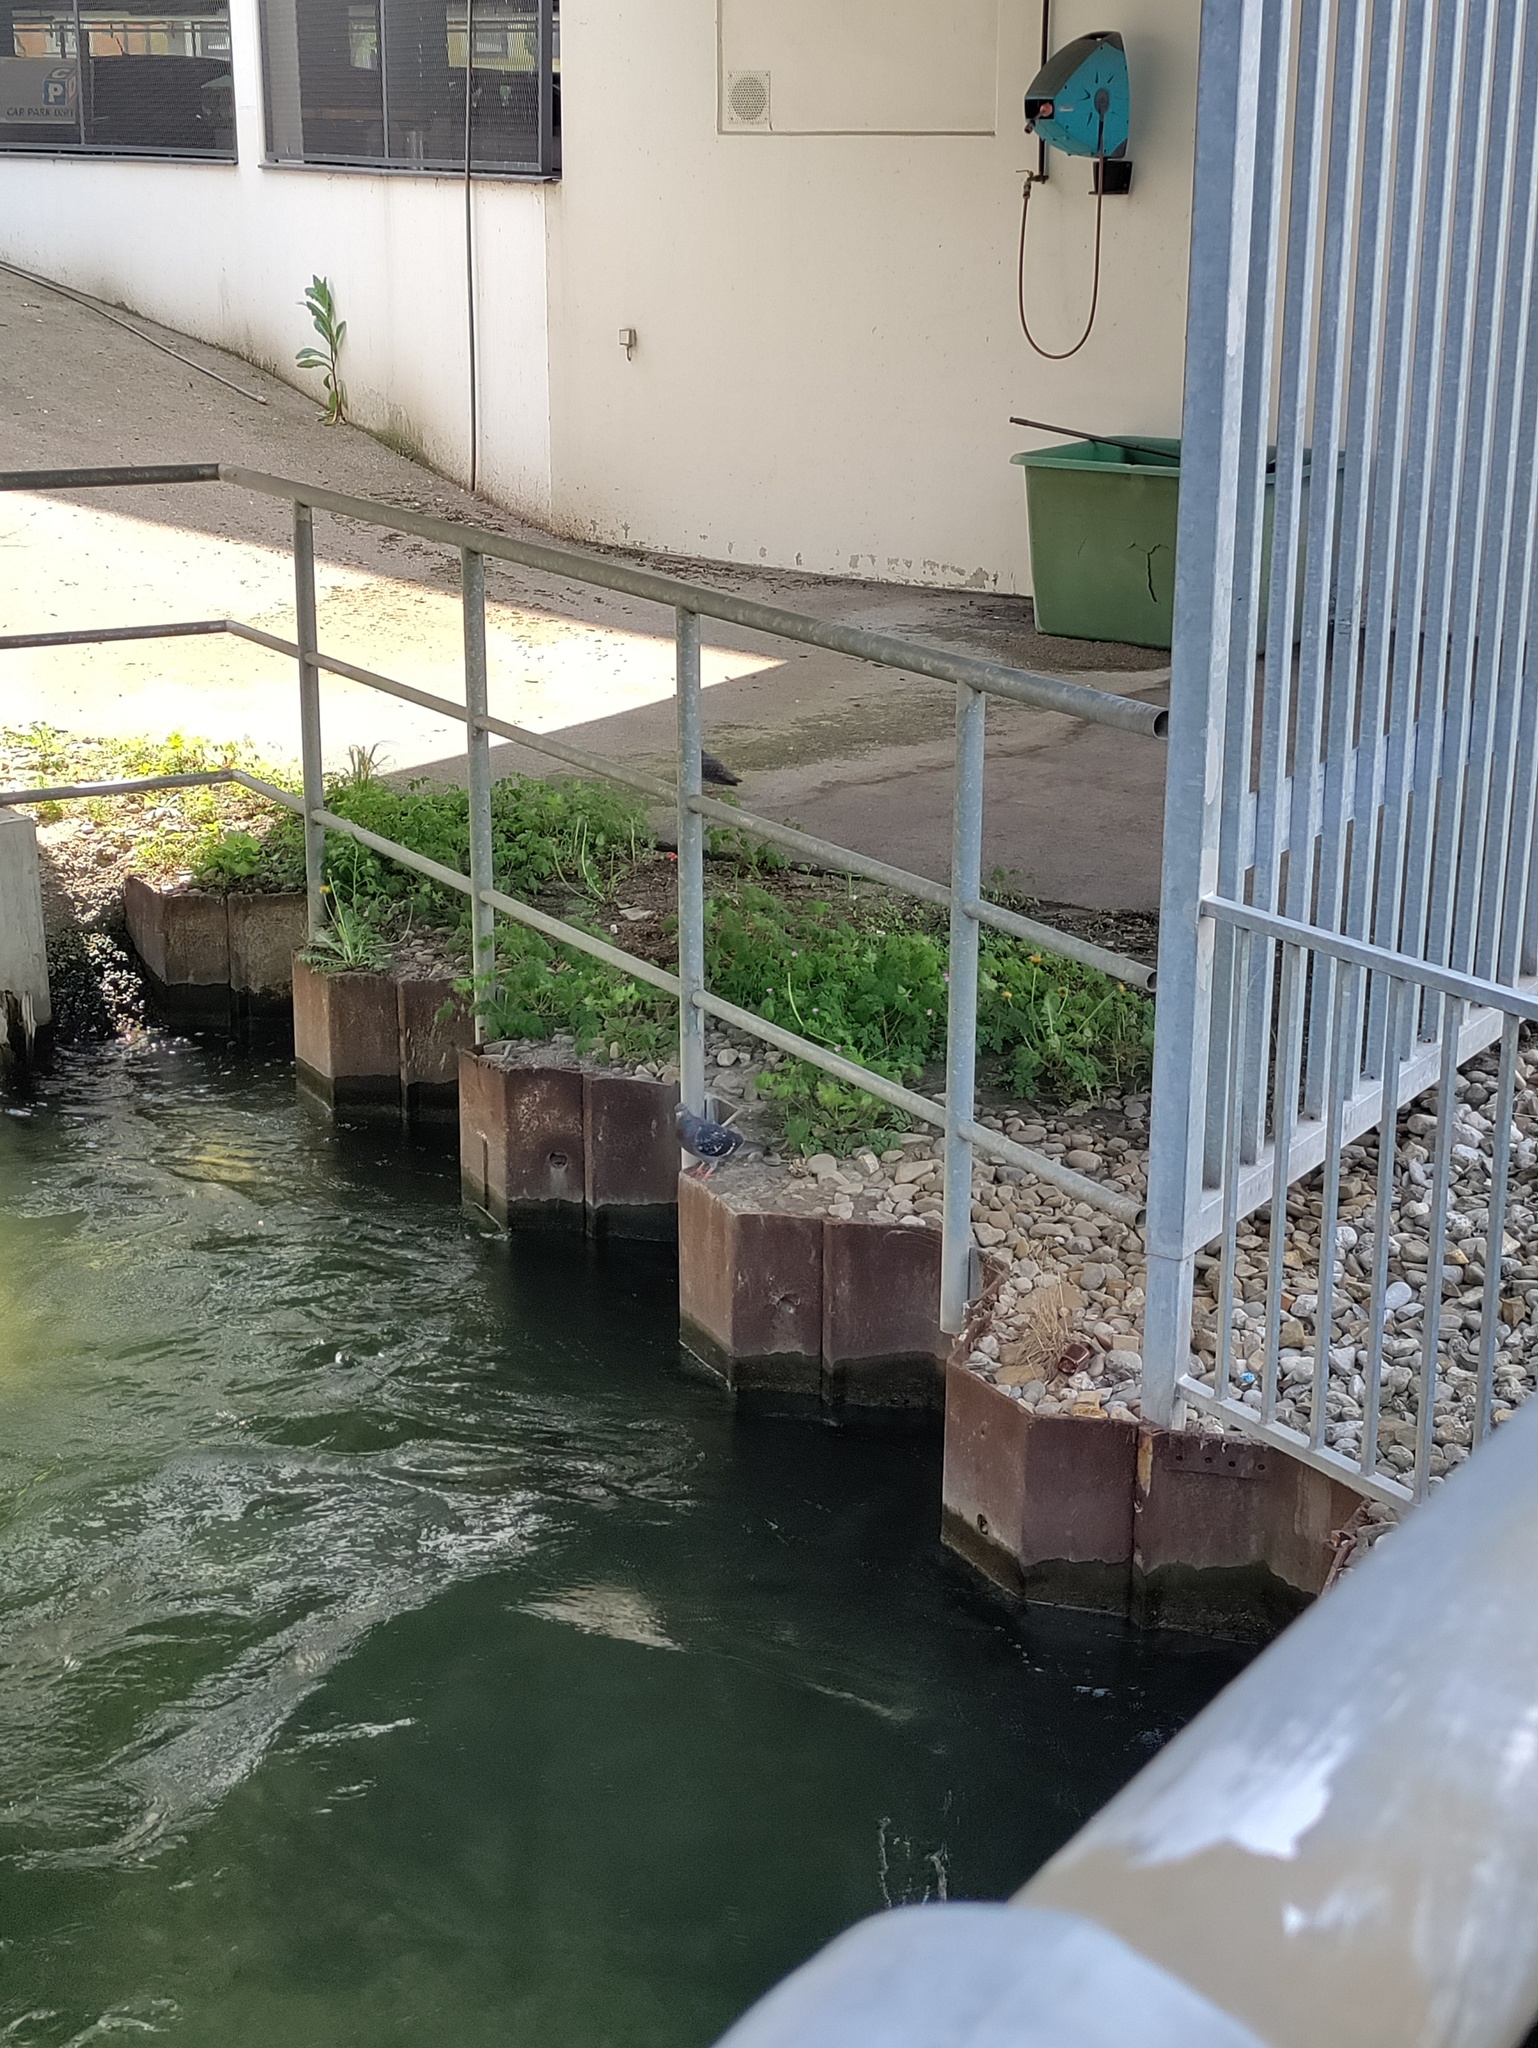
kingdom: Animalia
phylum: Chordata
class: Aves
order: Columbiformes
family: Columbidae
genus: Columba
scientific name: Columba livia
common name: Rock pigeon
